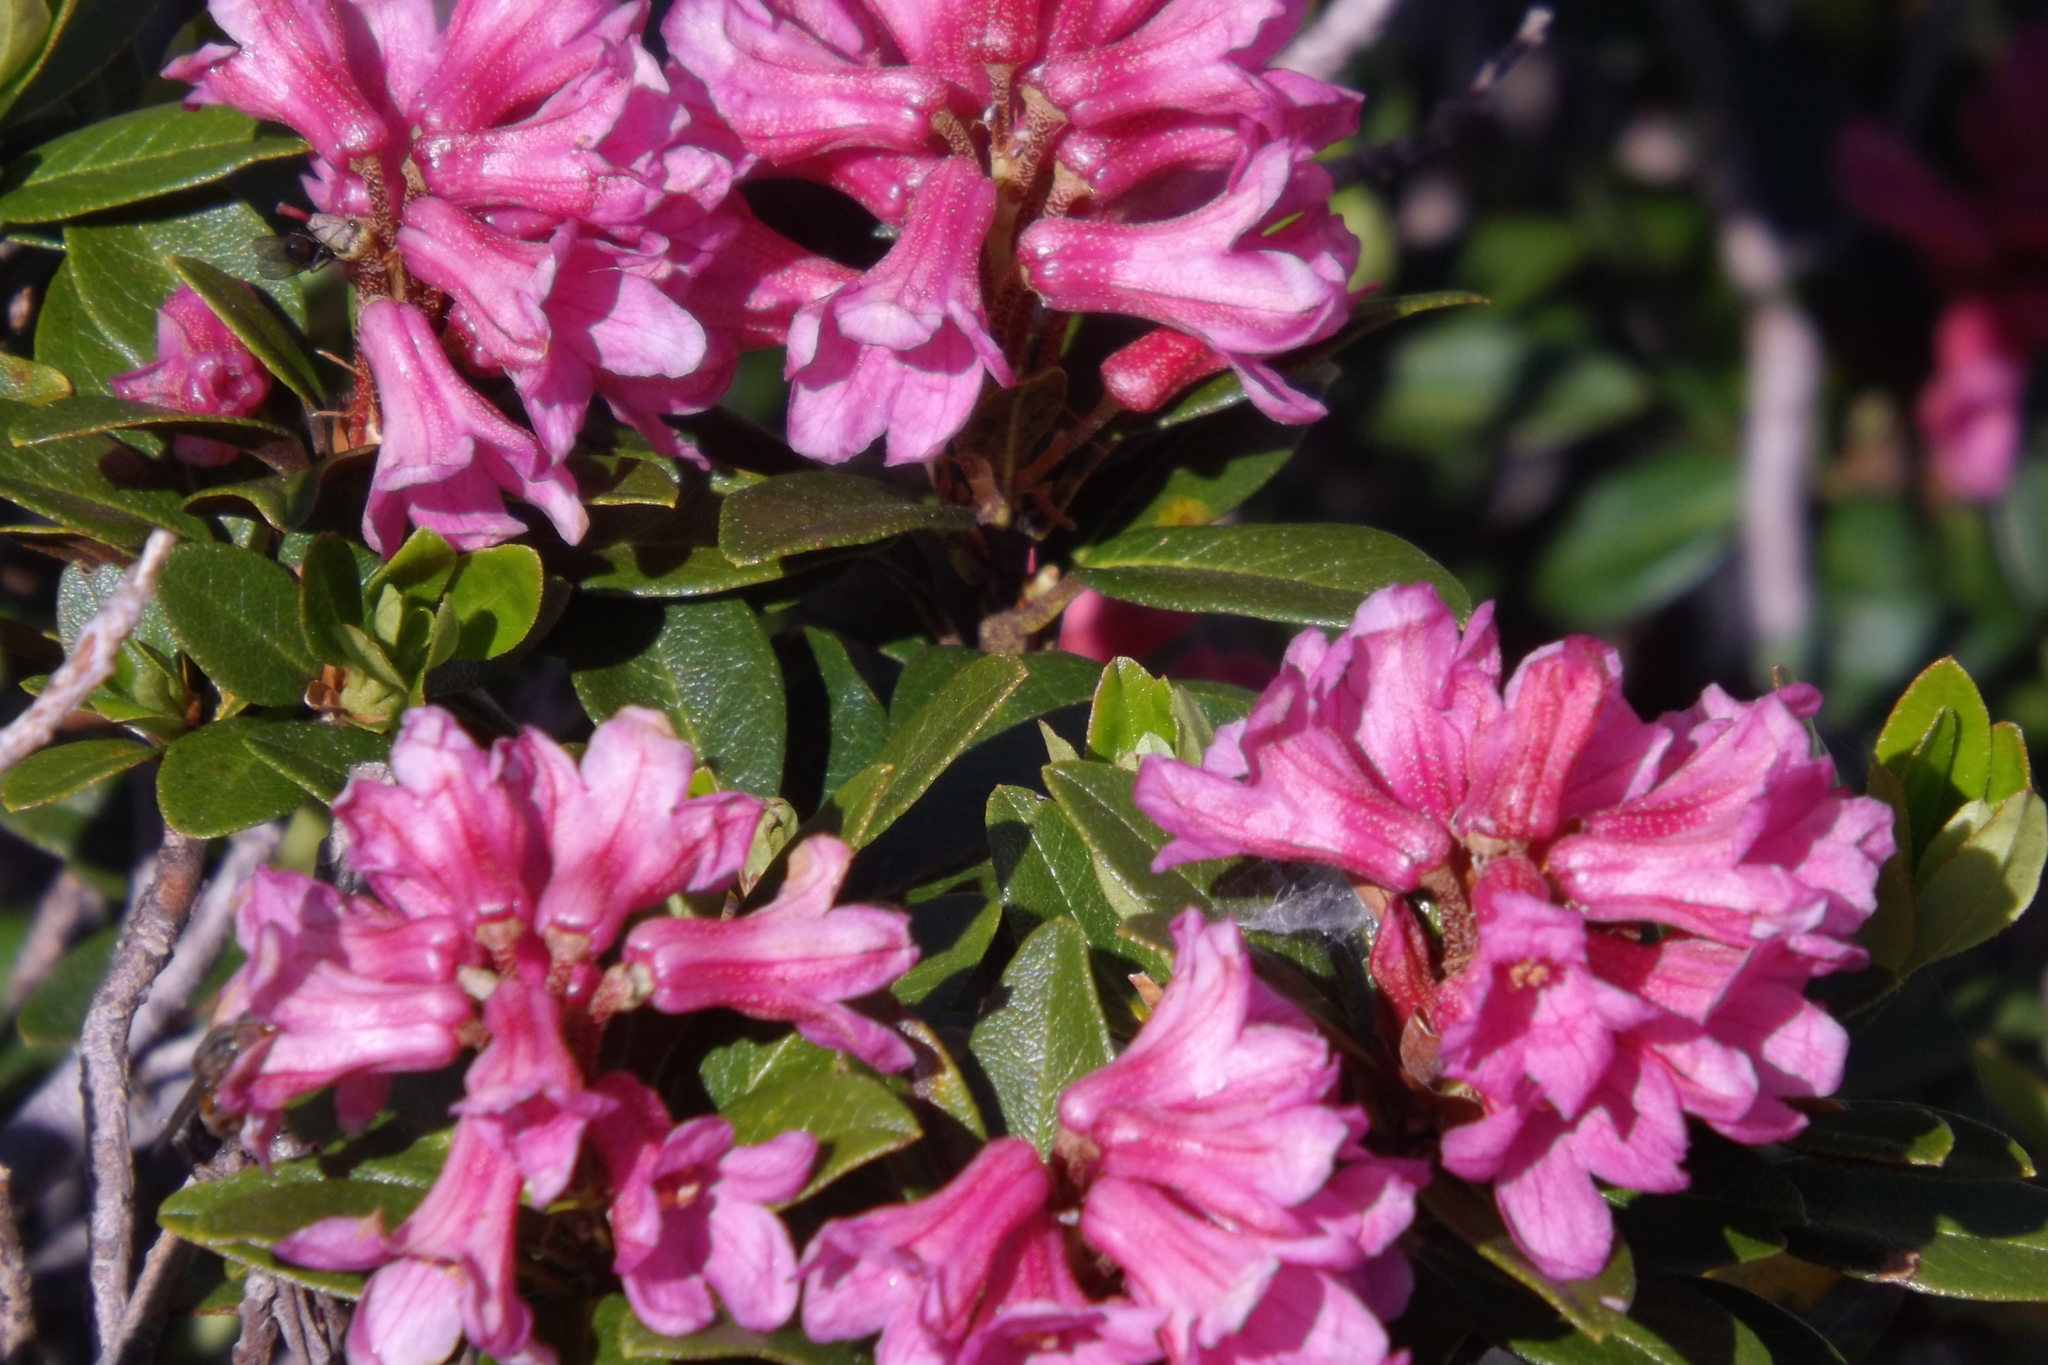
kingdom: Plantae
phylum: Tracheophyta
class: Magnoliopsida
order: Ericales
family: Ericaceae
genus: Rhododendron
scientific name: Rhododendron ferrugineum
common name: Alpenrose
